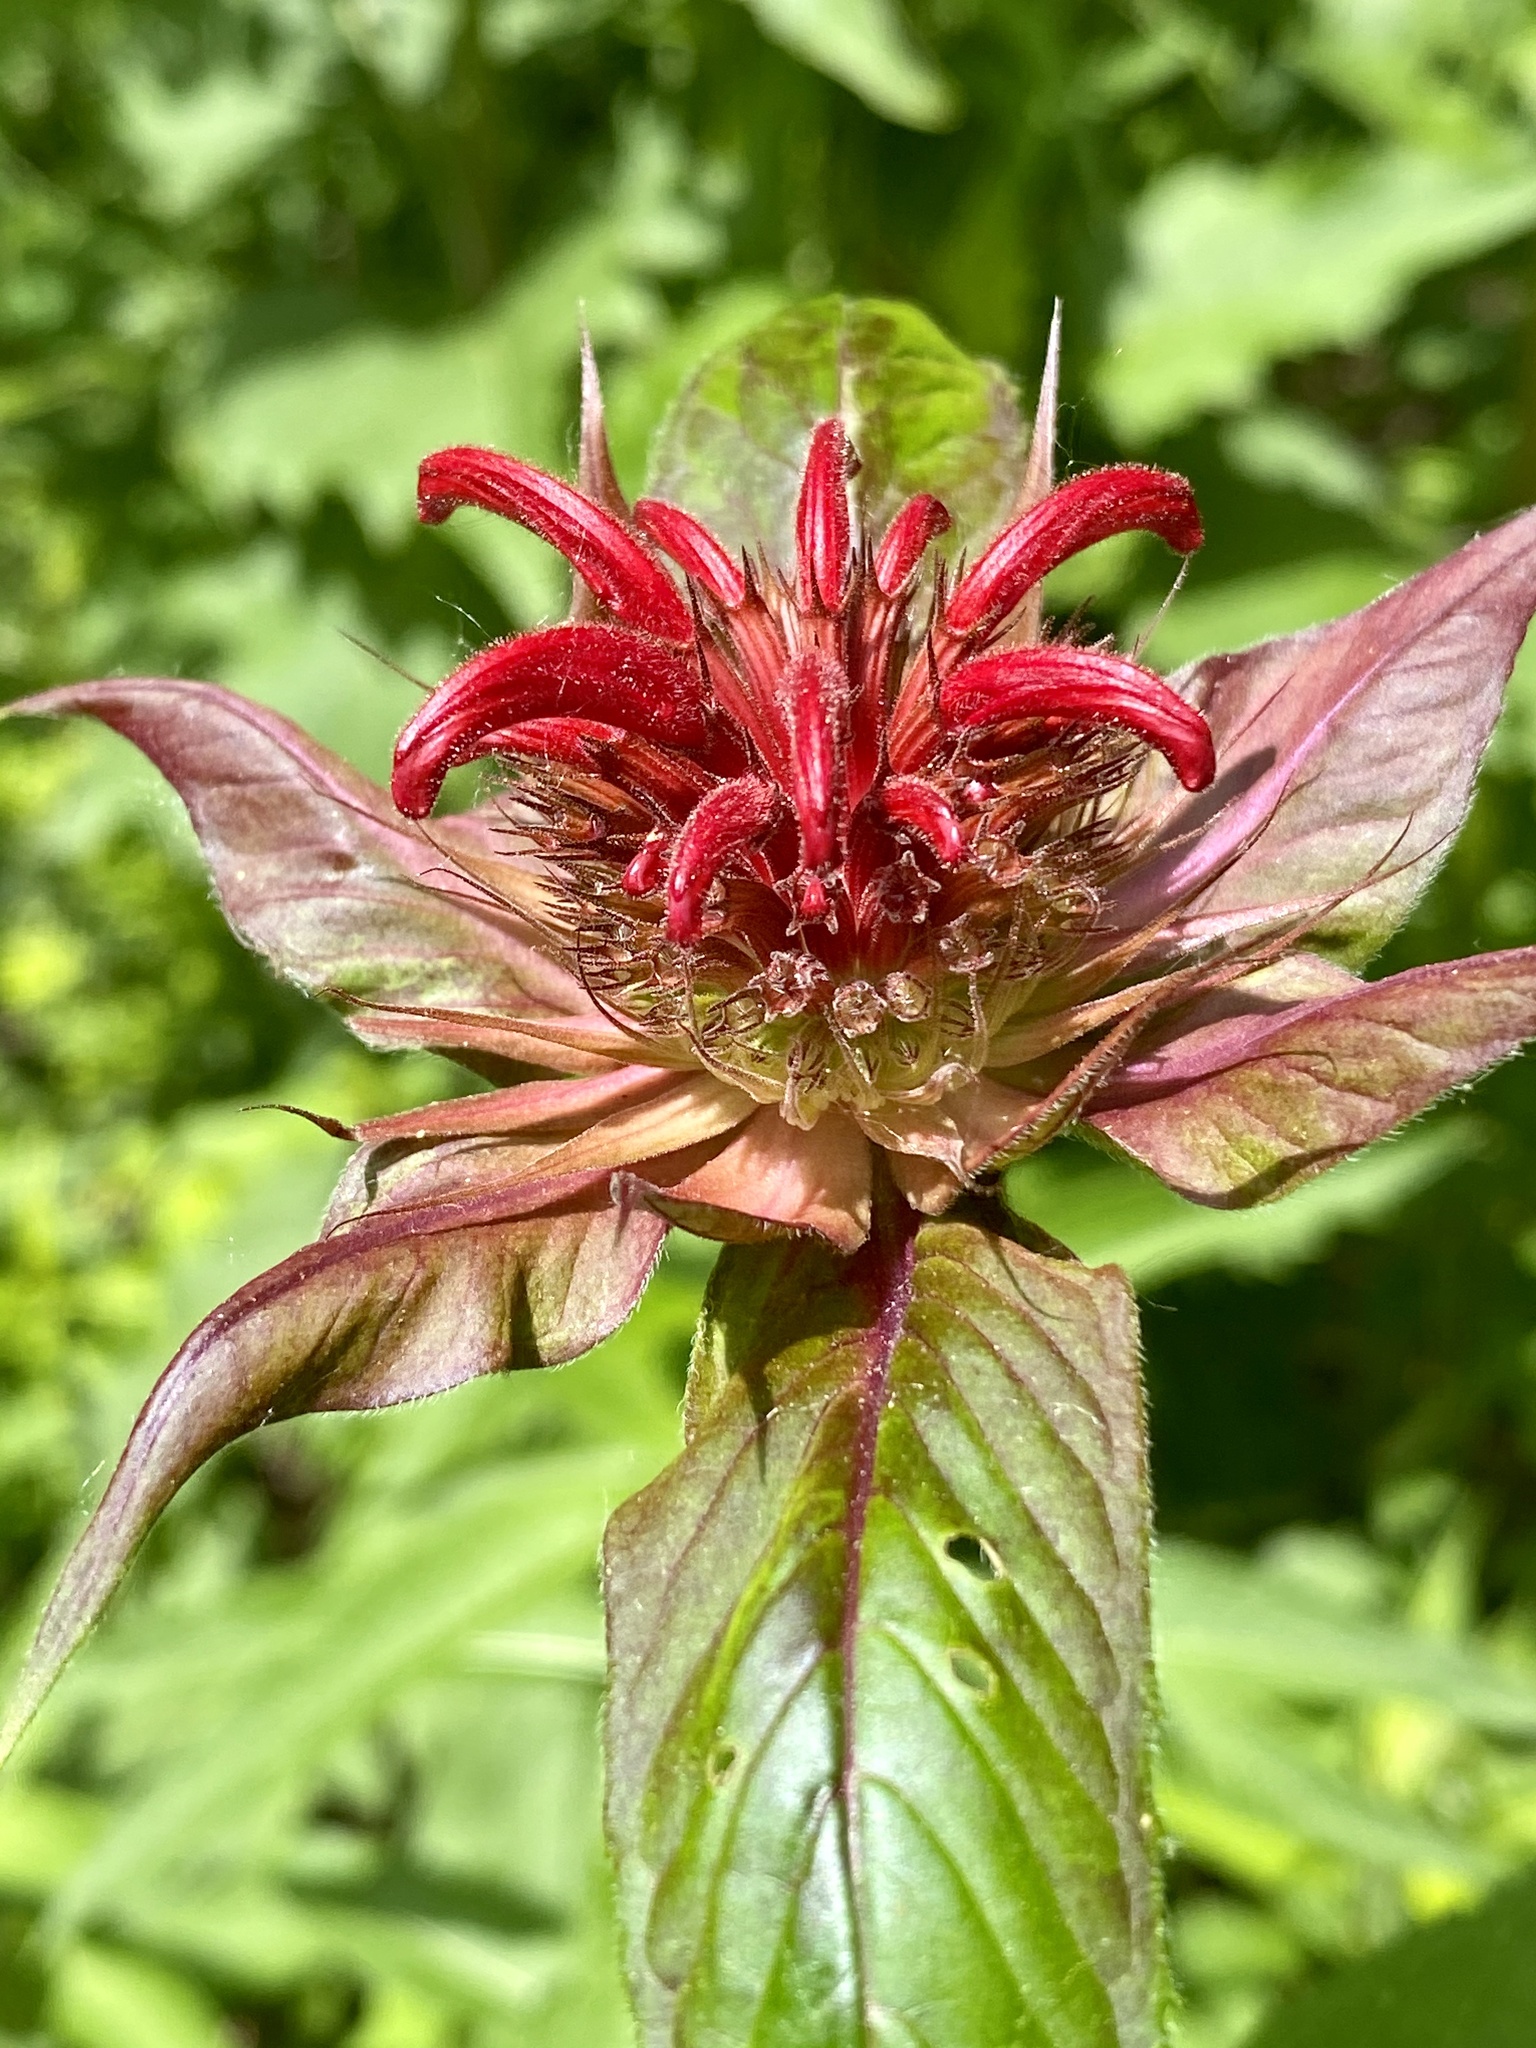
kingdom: Plantae
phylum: Tracheophyta
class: Magnoliopsida
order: Lamiales
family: Lamiaceae
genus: Monarda
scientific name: Monarda didyma
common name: Beebalm
